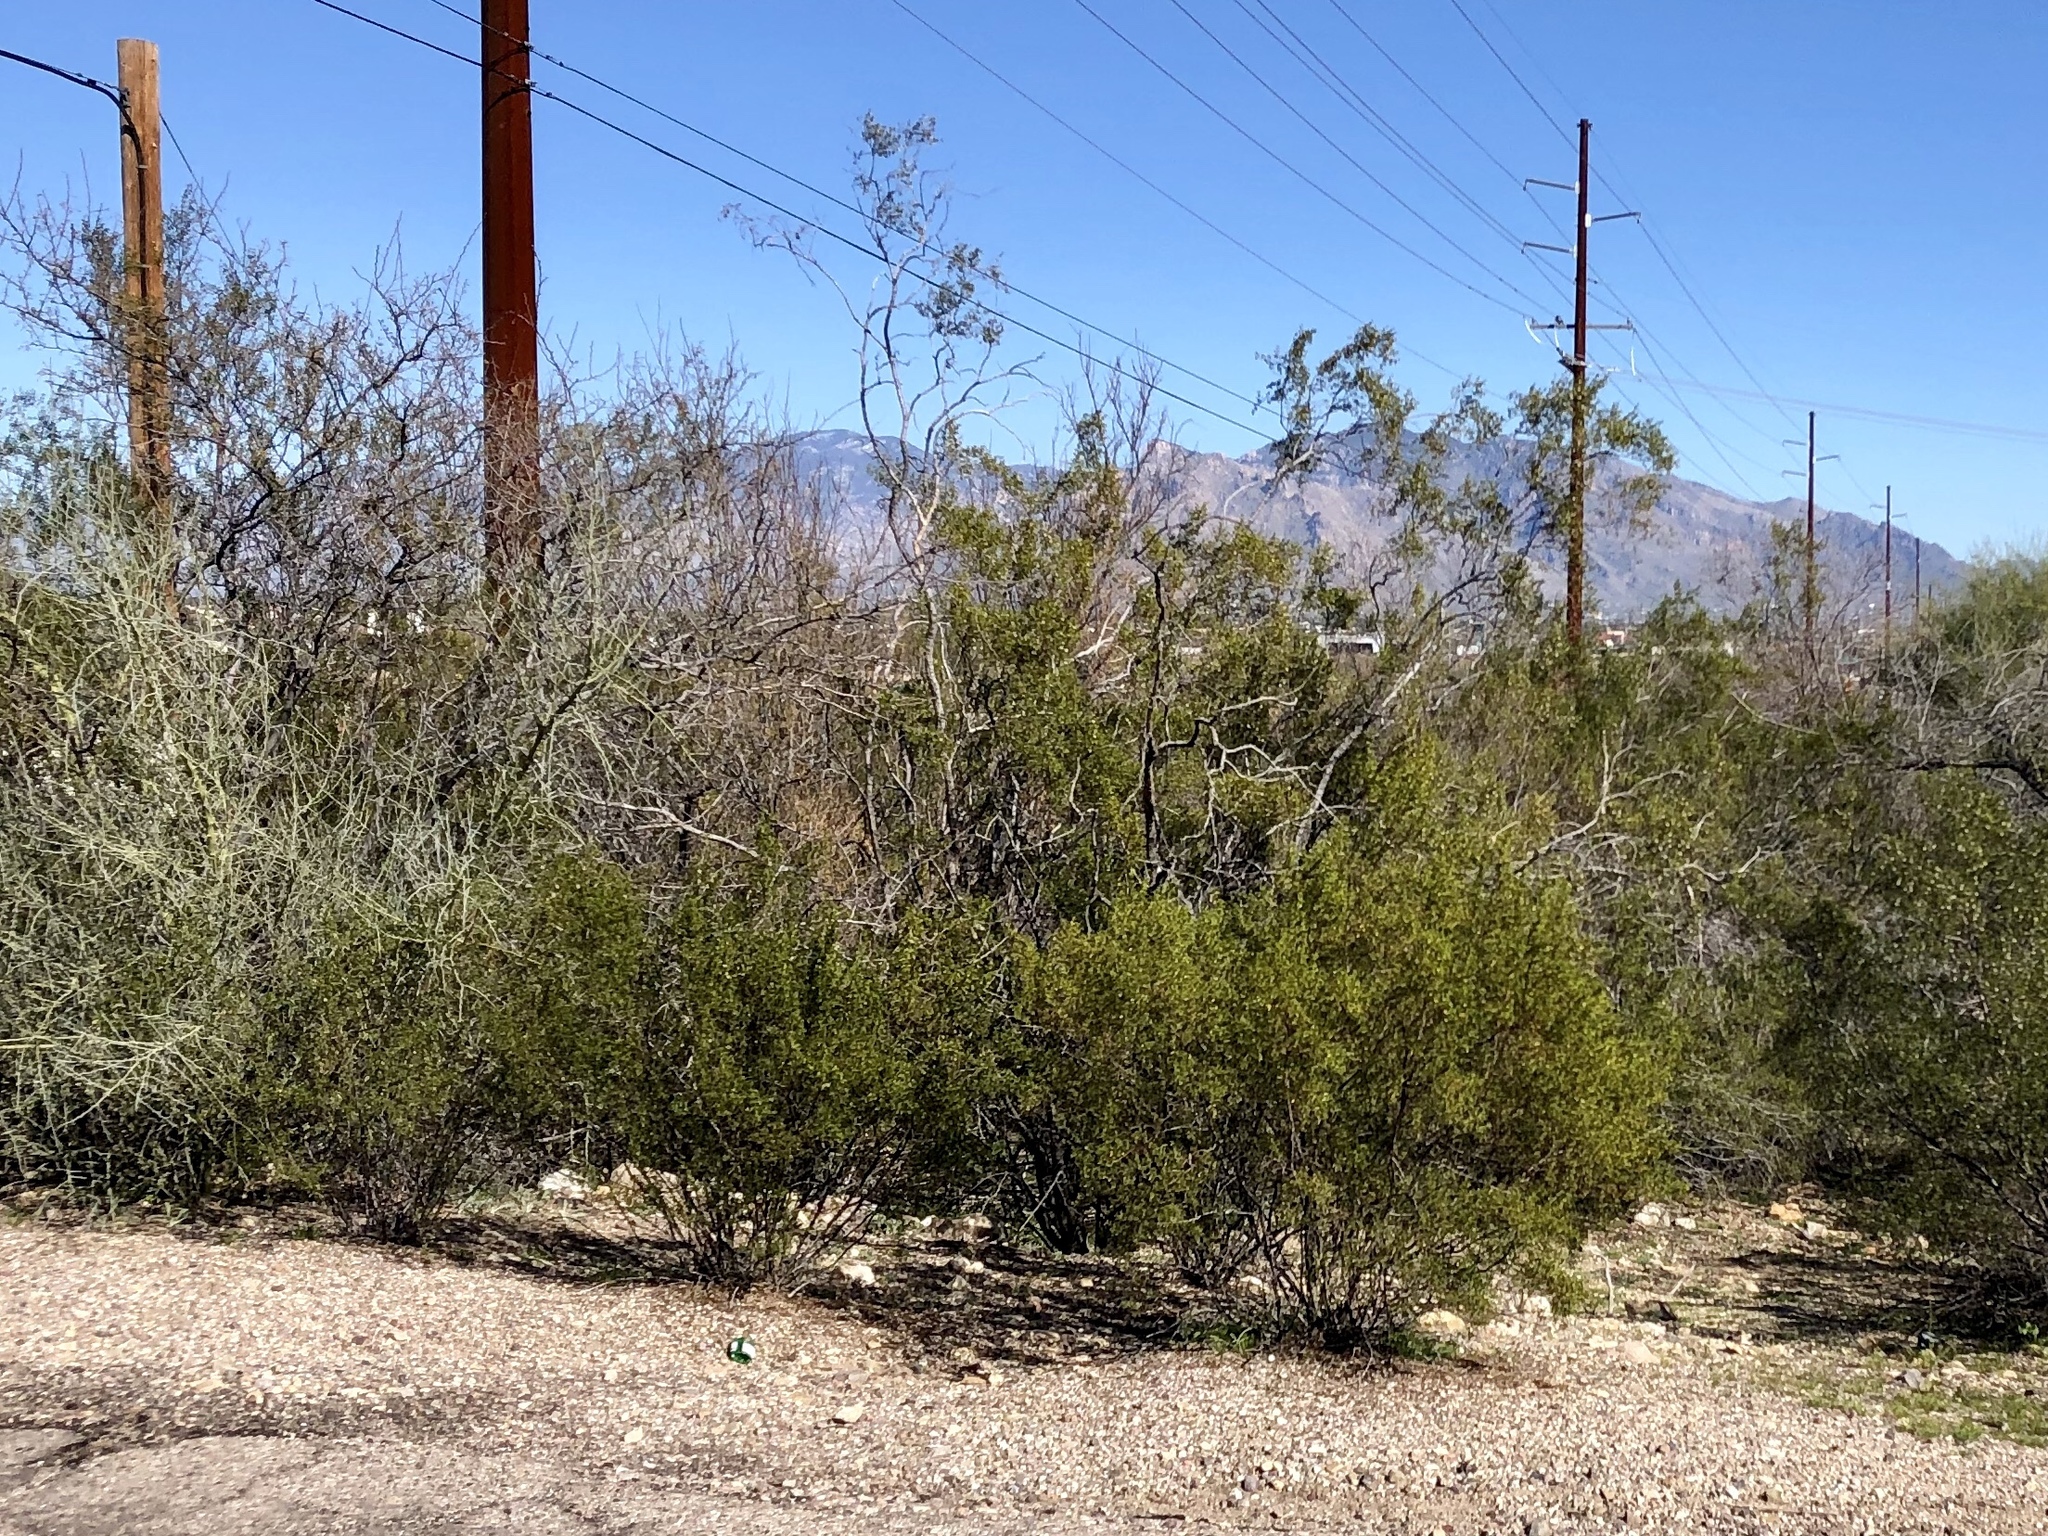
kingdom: Plantae
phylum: Tracheophyta
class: Magnoliopsida
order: Zygophyllales
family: Zygophyllaceae
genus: Larrea
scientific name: Larrea tridentata
